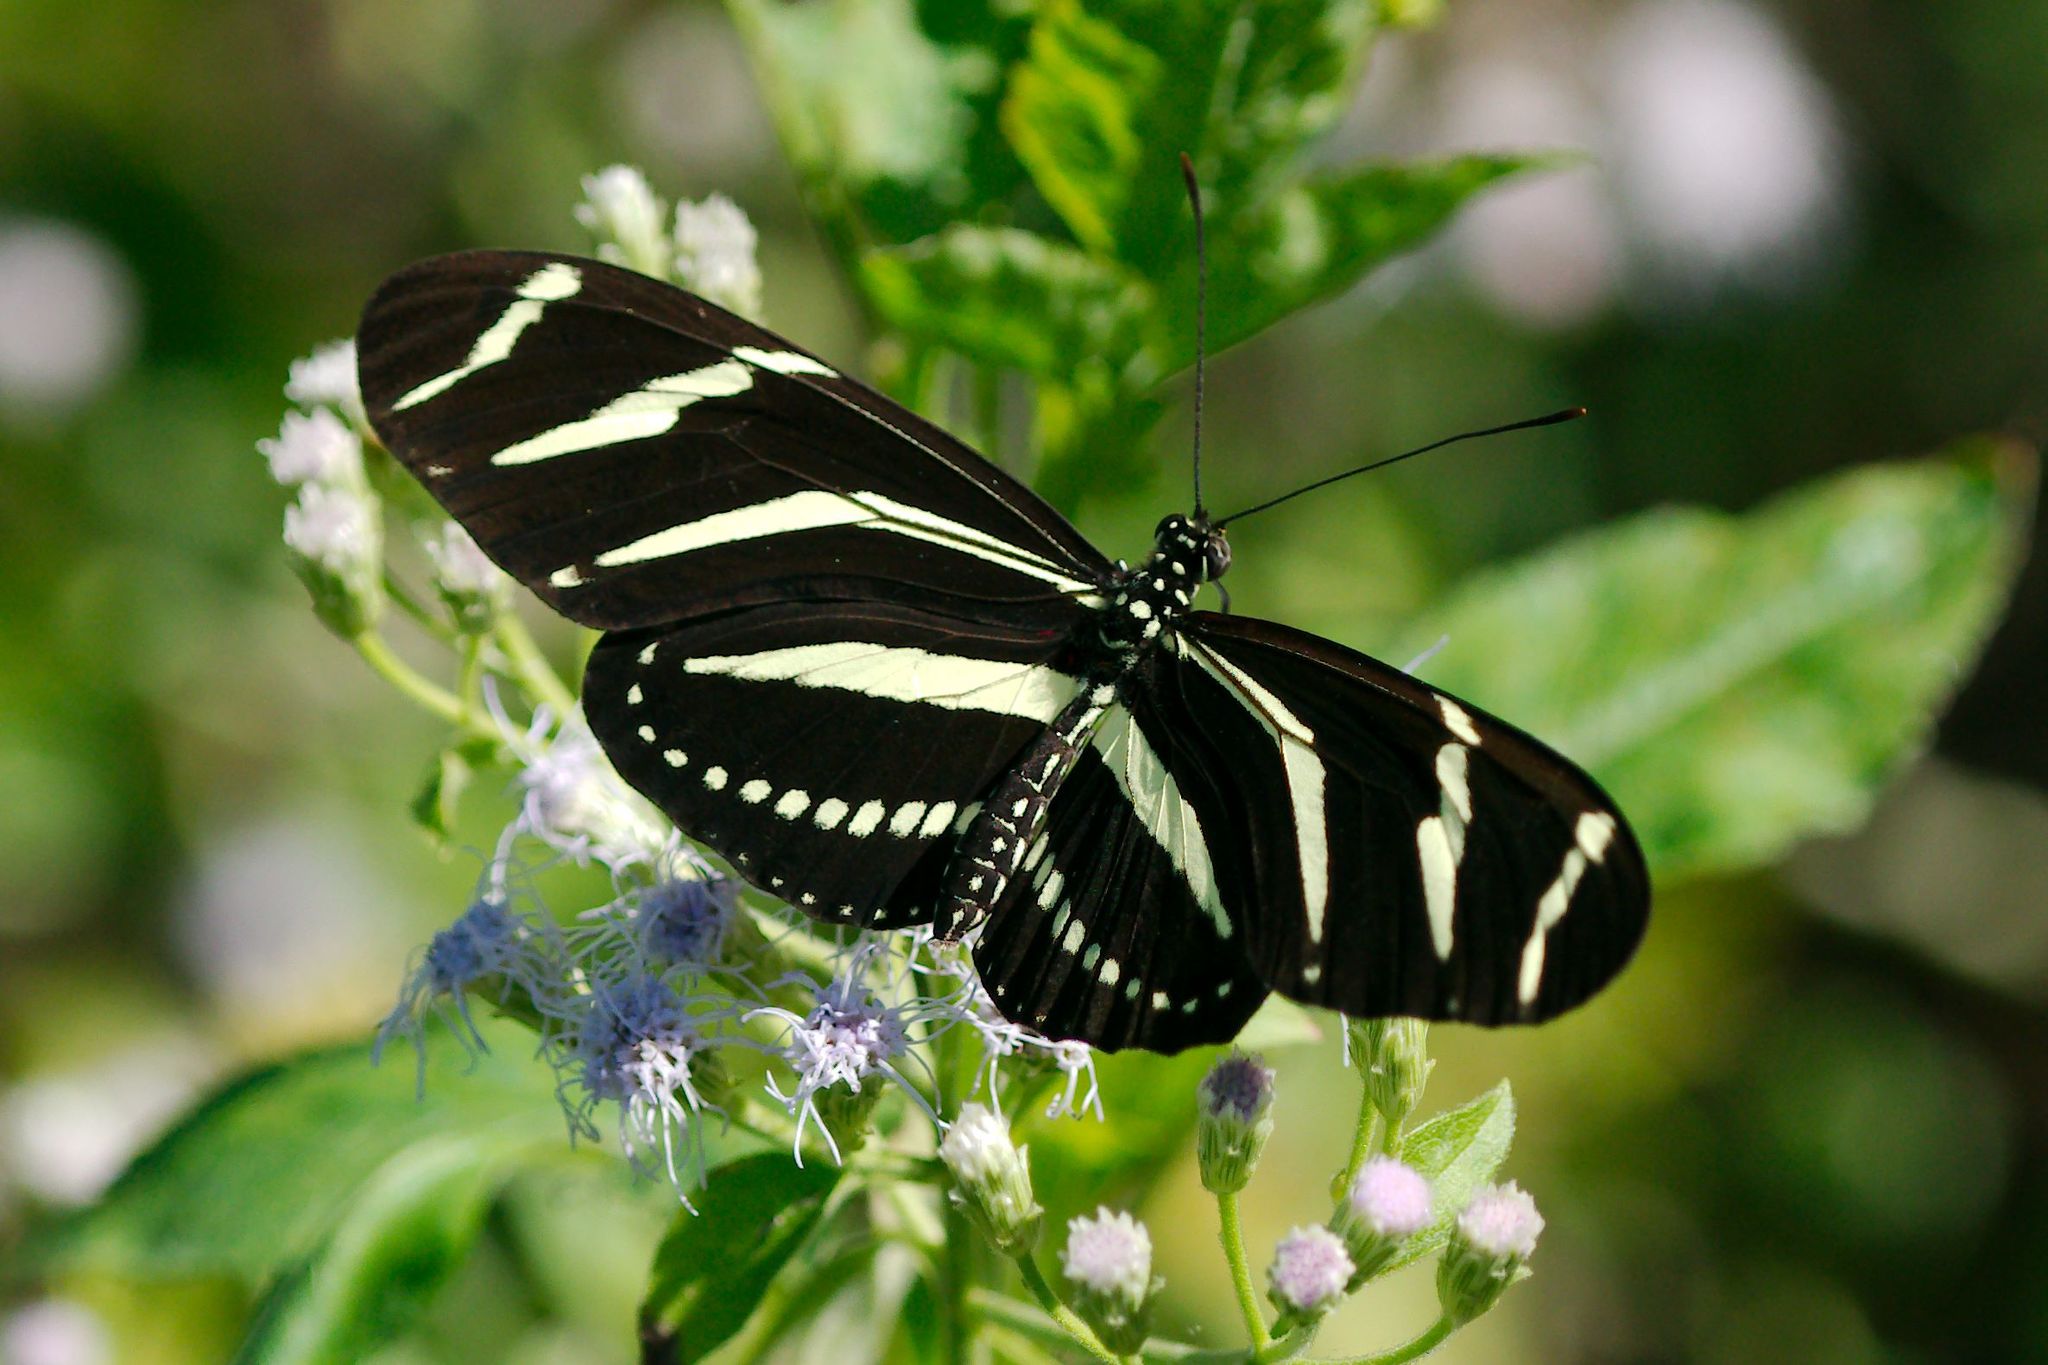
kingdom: Animalia
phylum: Arthropoda
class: Insecta
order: Lepidoptera
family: Nymphalidae
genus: Heliconius
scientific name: Heliconius charithonia
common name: Zebra long wing
